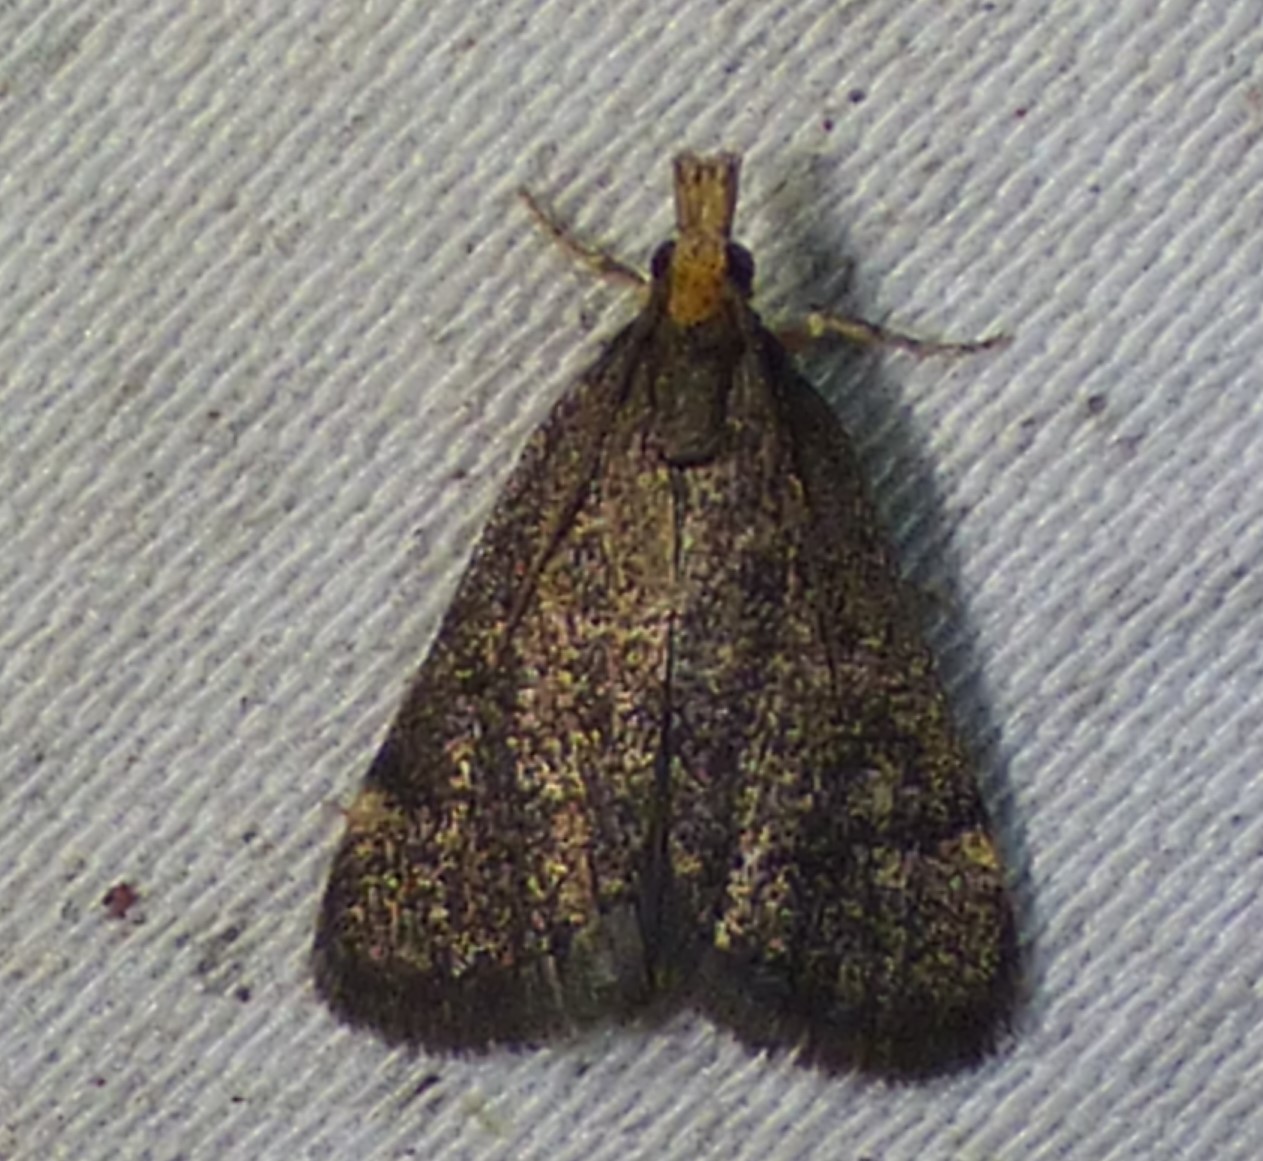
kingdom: Animalia
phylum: Arthropoda
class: Insecta
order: Lepidoptera
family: Crambidae
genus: Pyrausta
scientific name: Pyrausta merrickalis
